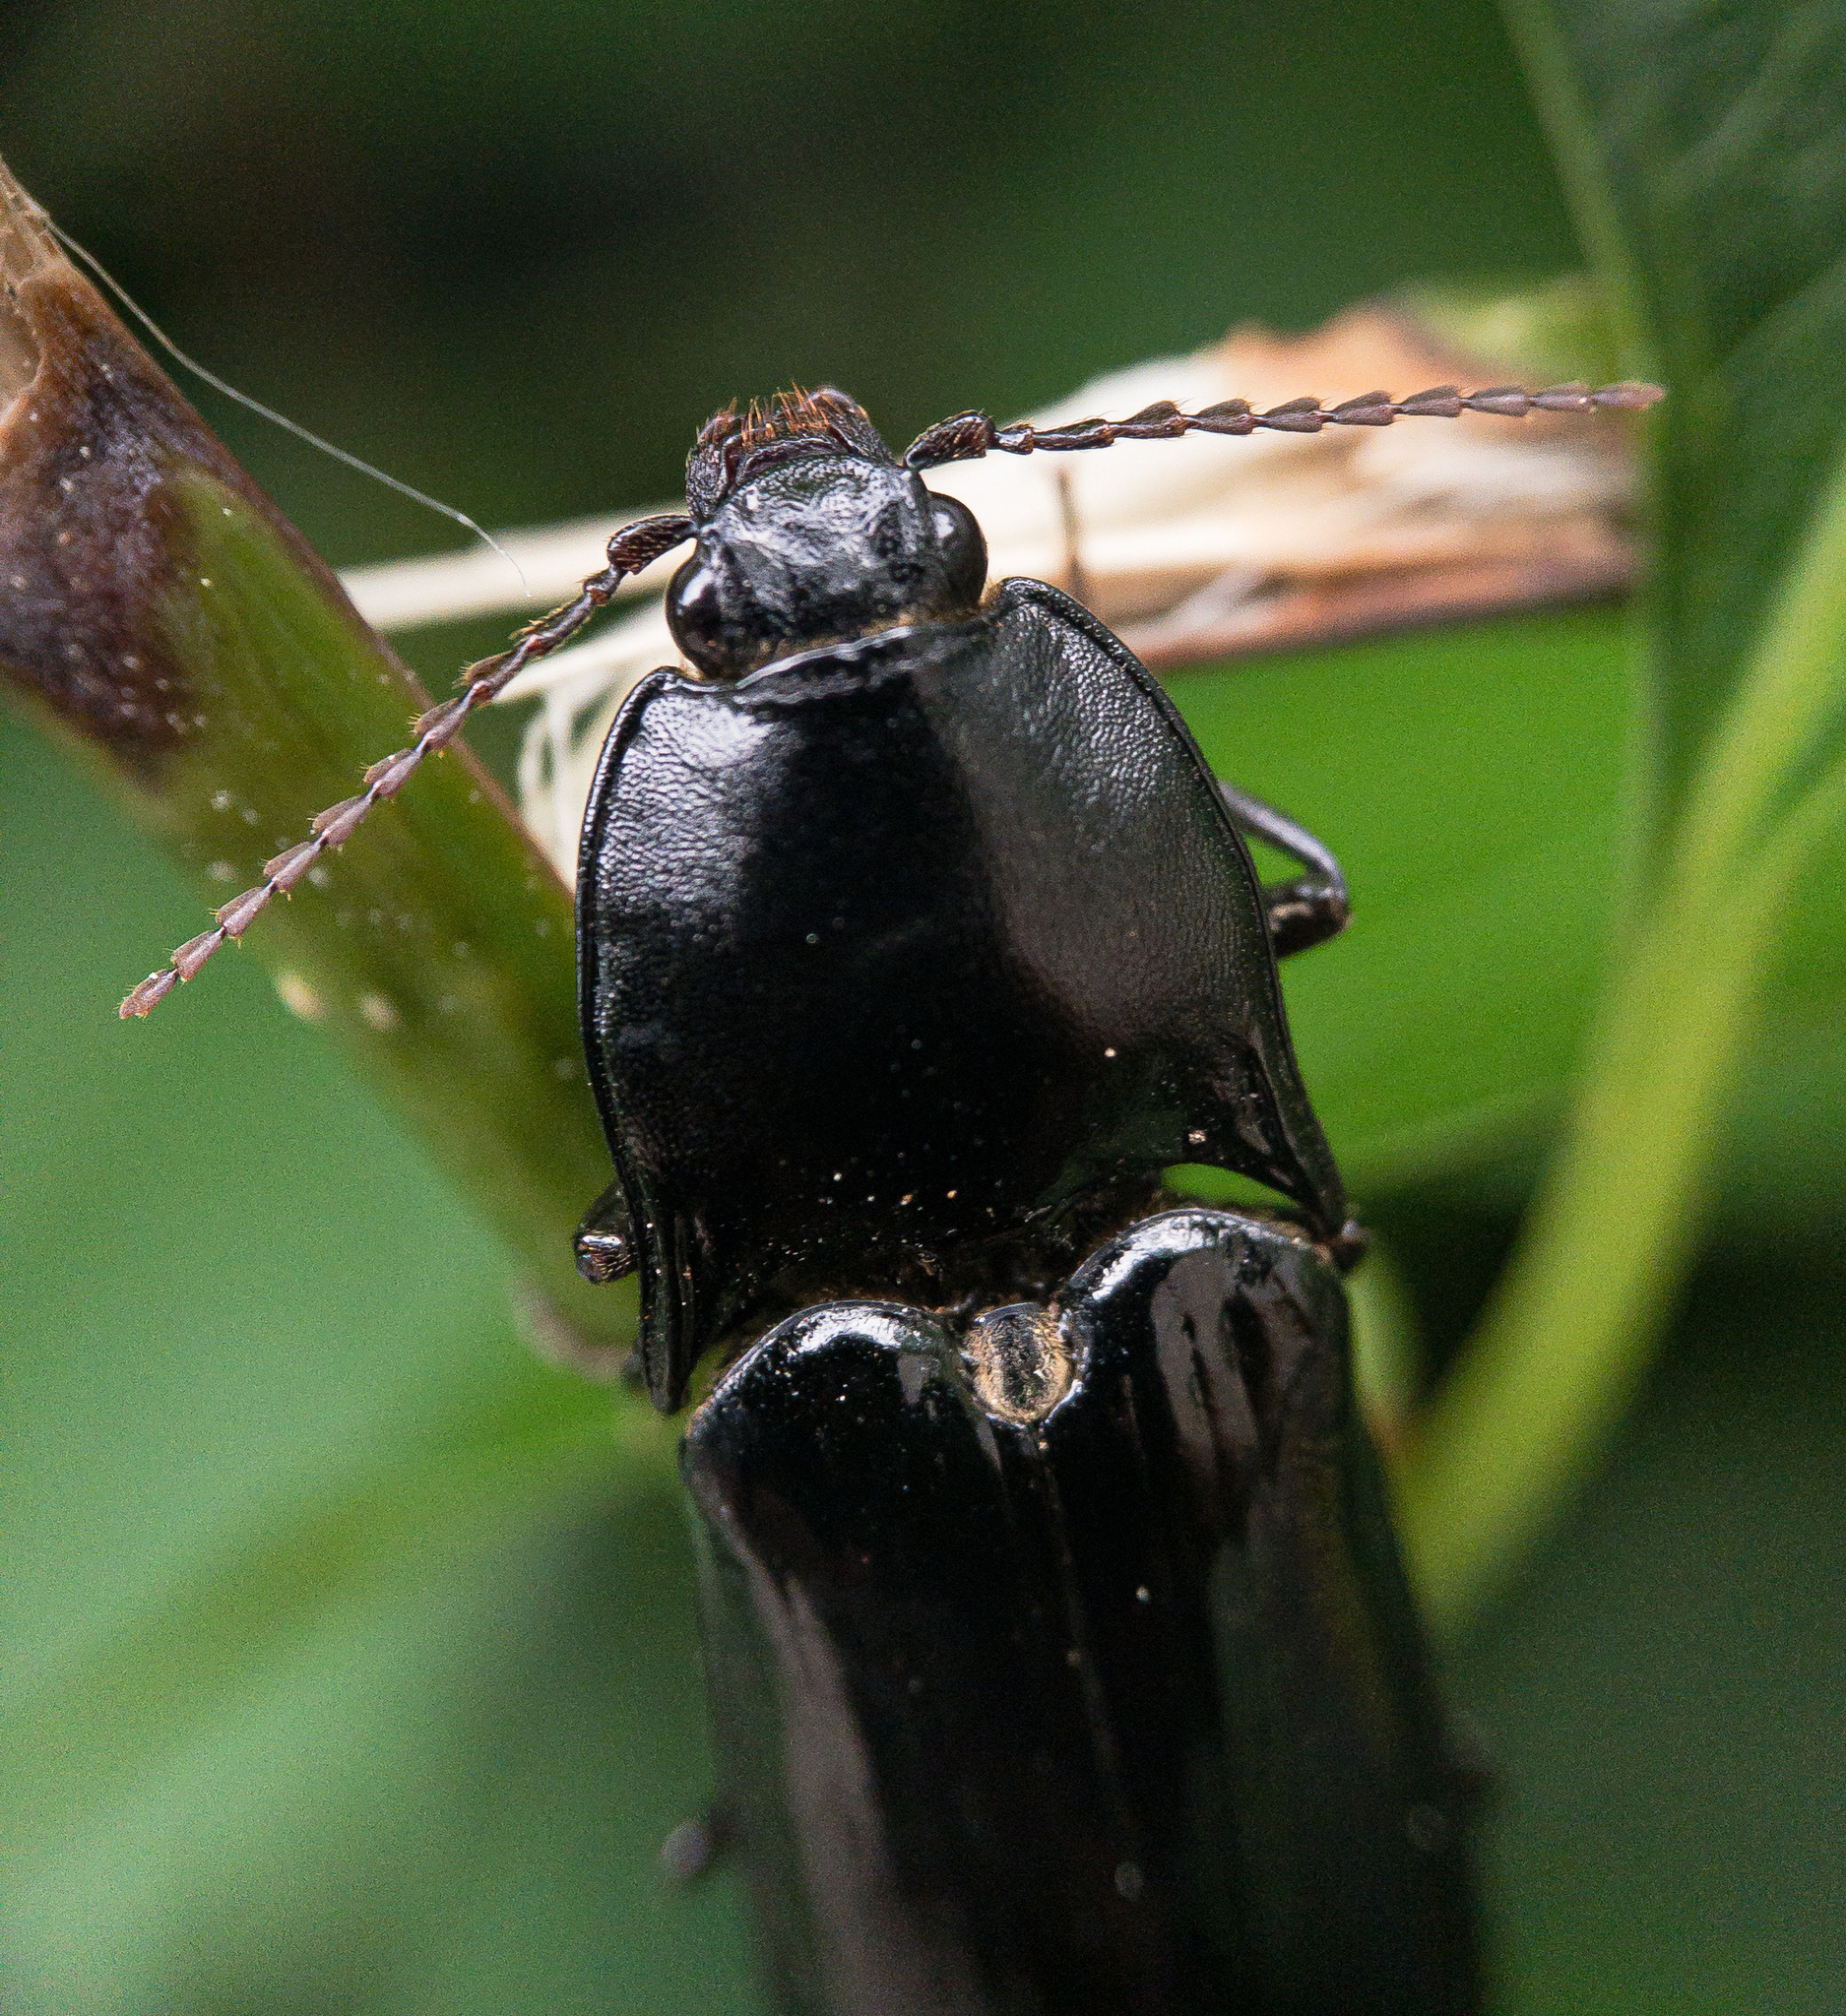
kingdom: Animalia
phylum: Arthropoda
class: Insecta
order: Coleoptera
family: Elateridae
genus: Melanactes
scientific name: Melanactes piceus
